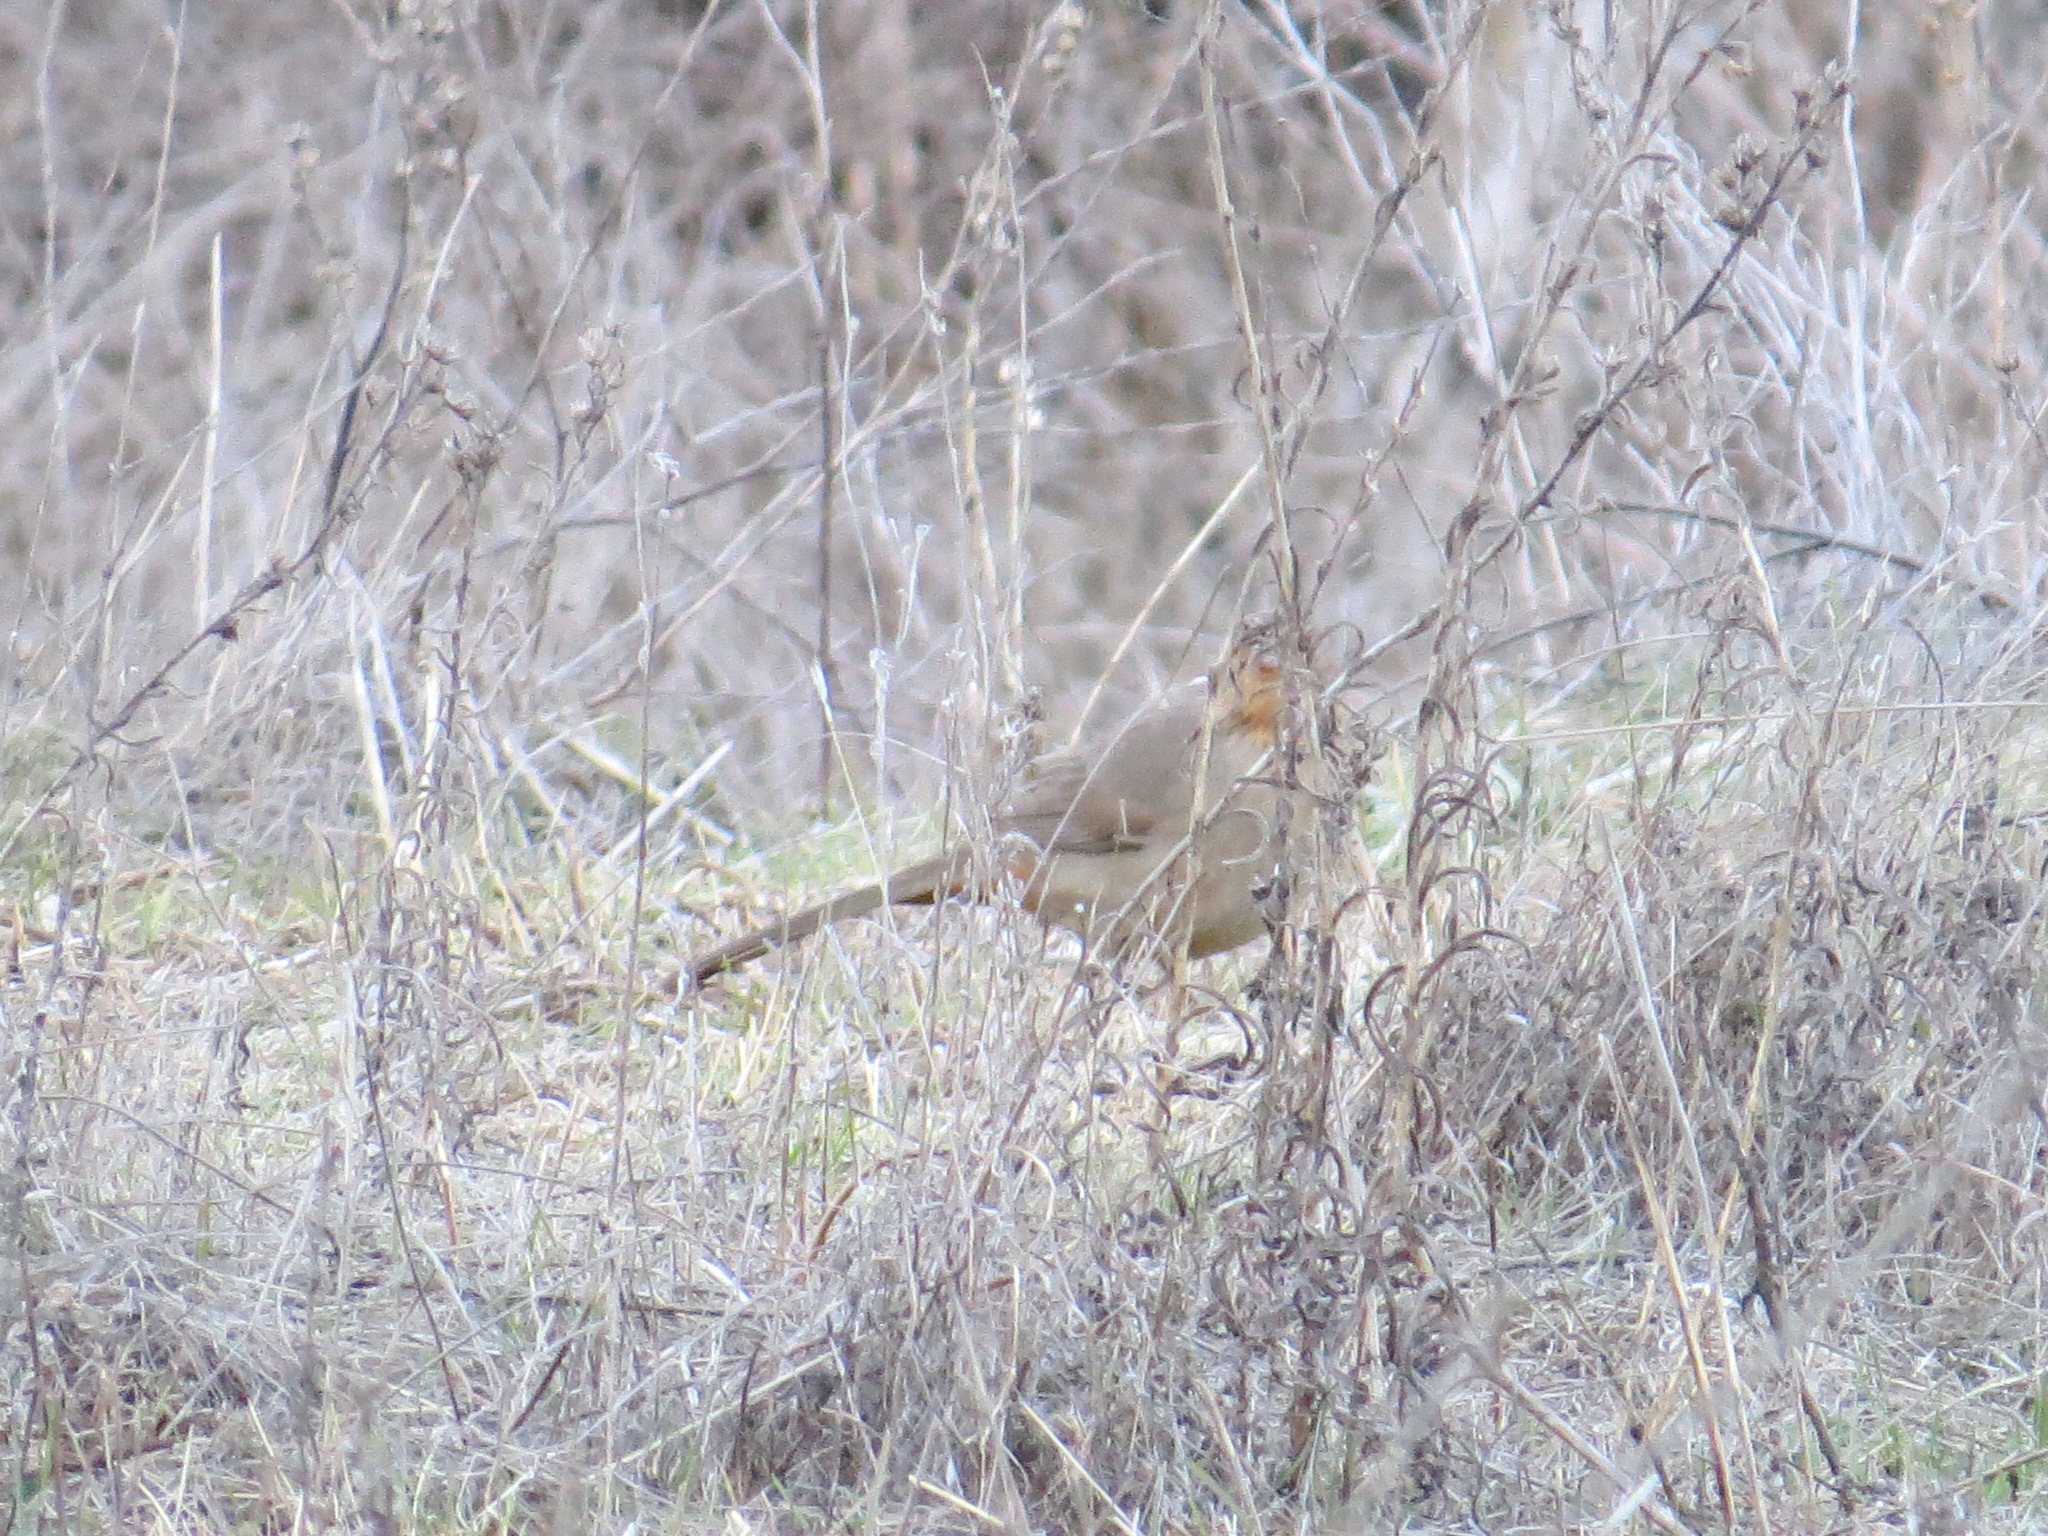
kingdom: Animalia
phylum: Chordata
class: Aves
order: Passeriformes
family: Passerellidae
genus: Melozone
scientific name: Melozone crissalis
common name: California towhee
